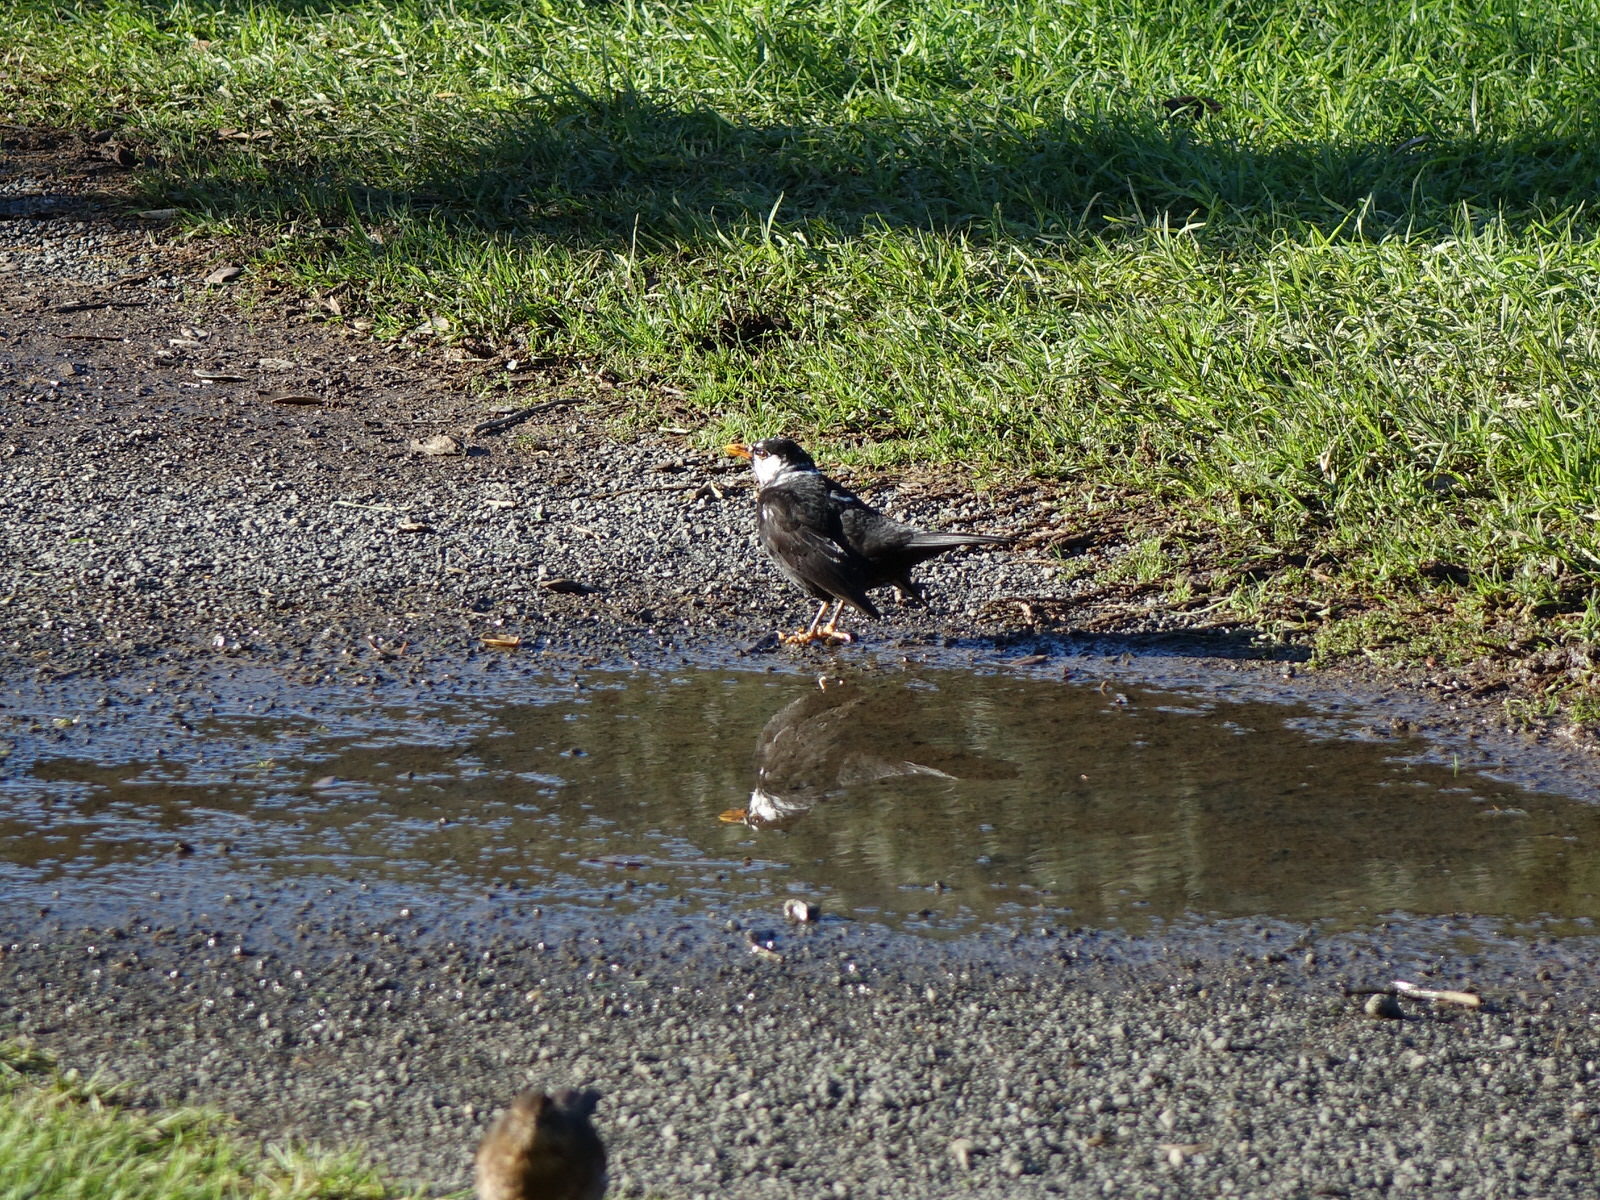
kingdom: Animalia
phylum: Chordata
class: Aves
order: Passeriformes
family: Turdidae
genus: Turdus
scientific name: Turdus merula
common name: Common blackbird
